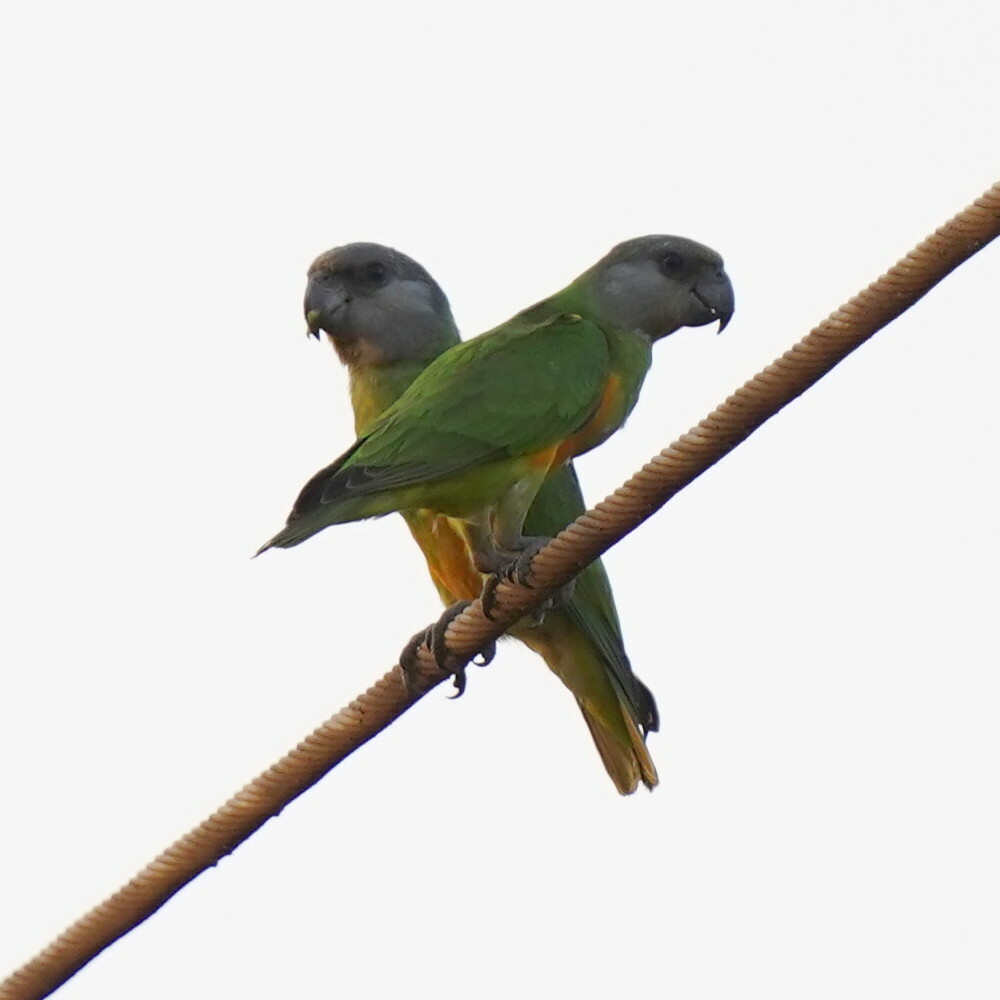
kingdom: Animalia
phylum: Chordata
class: Aves
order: Psittaciformes
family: Psittacidae
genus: Poicephalus
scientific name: Poicephalus senegalus
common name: Senegal parrot
